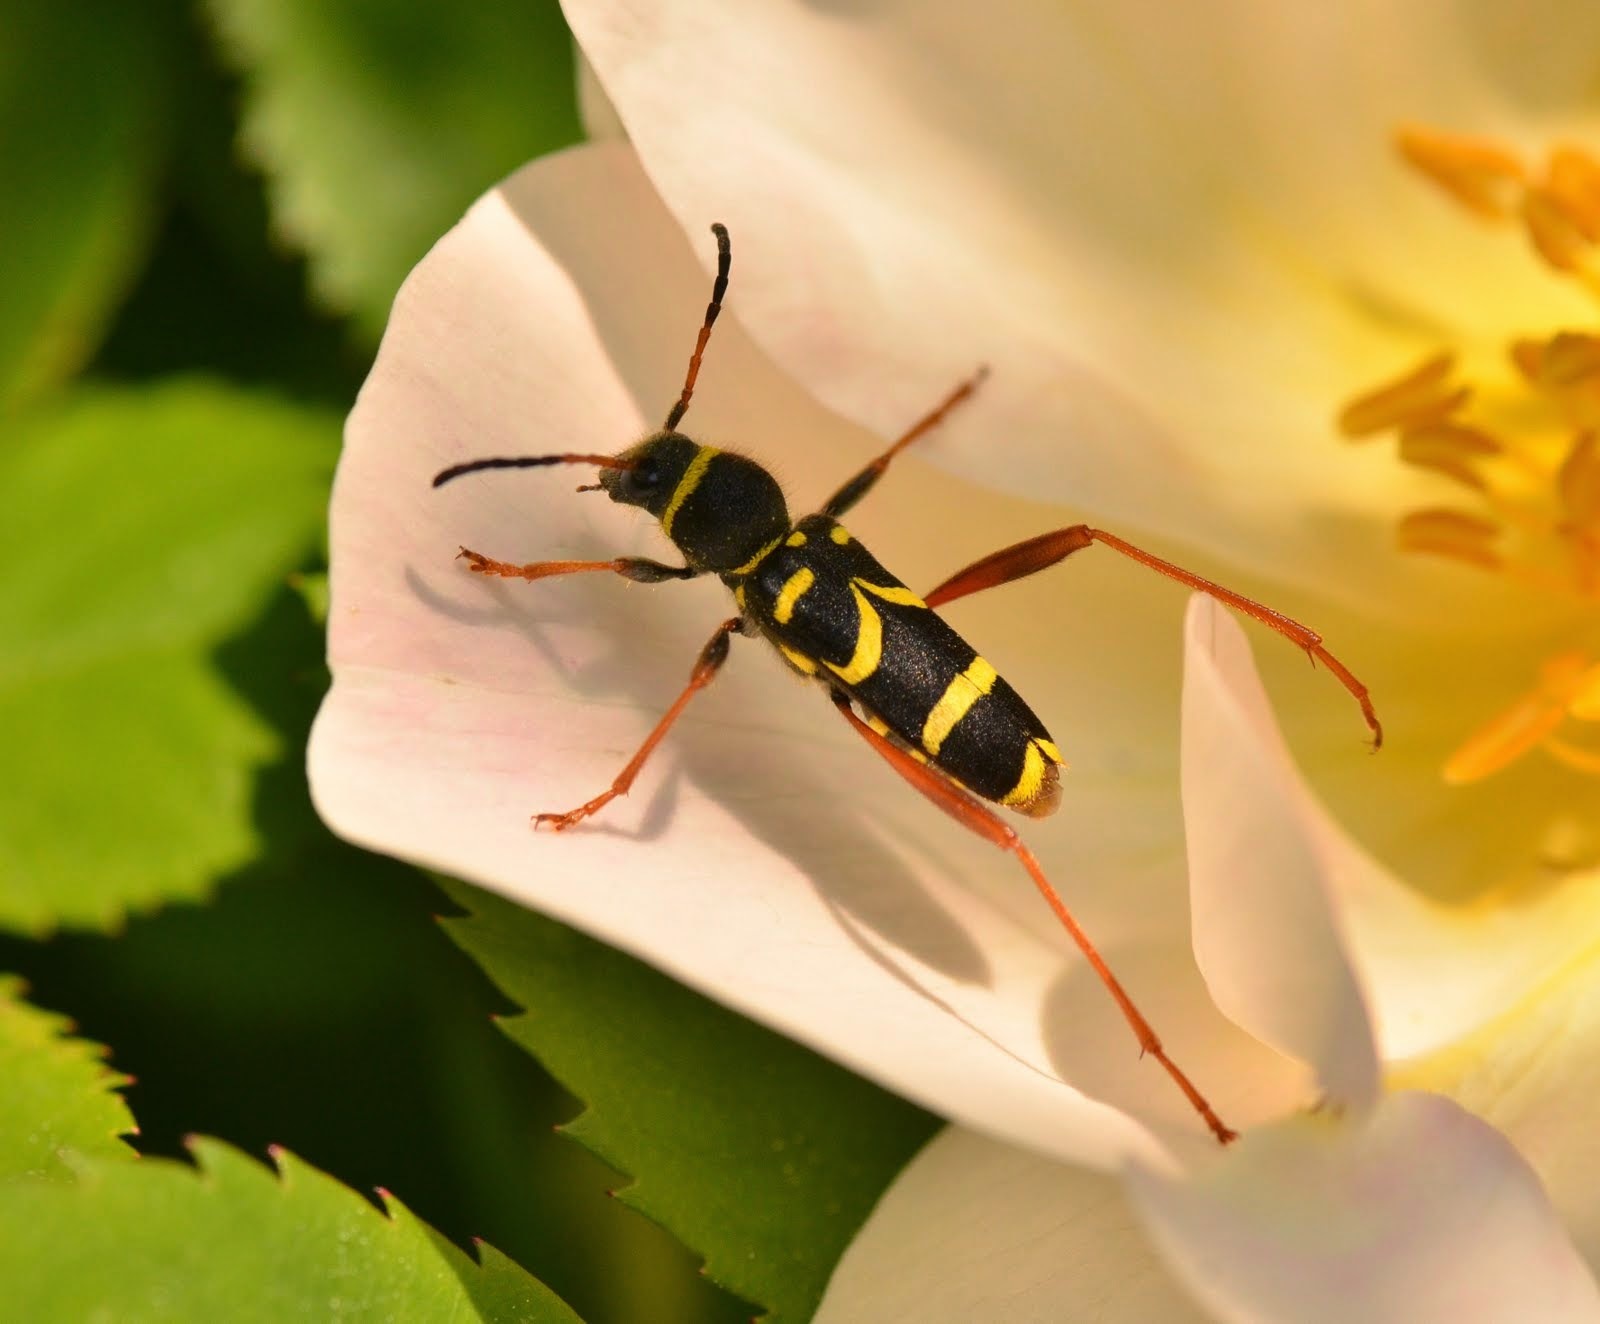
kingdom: Animalia
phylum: Arthropoda
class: Insecta
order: Coleoptera
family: Cerambycidae
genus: Clytus
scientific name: Clytus arietis
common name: Wasp beetle
